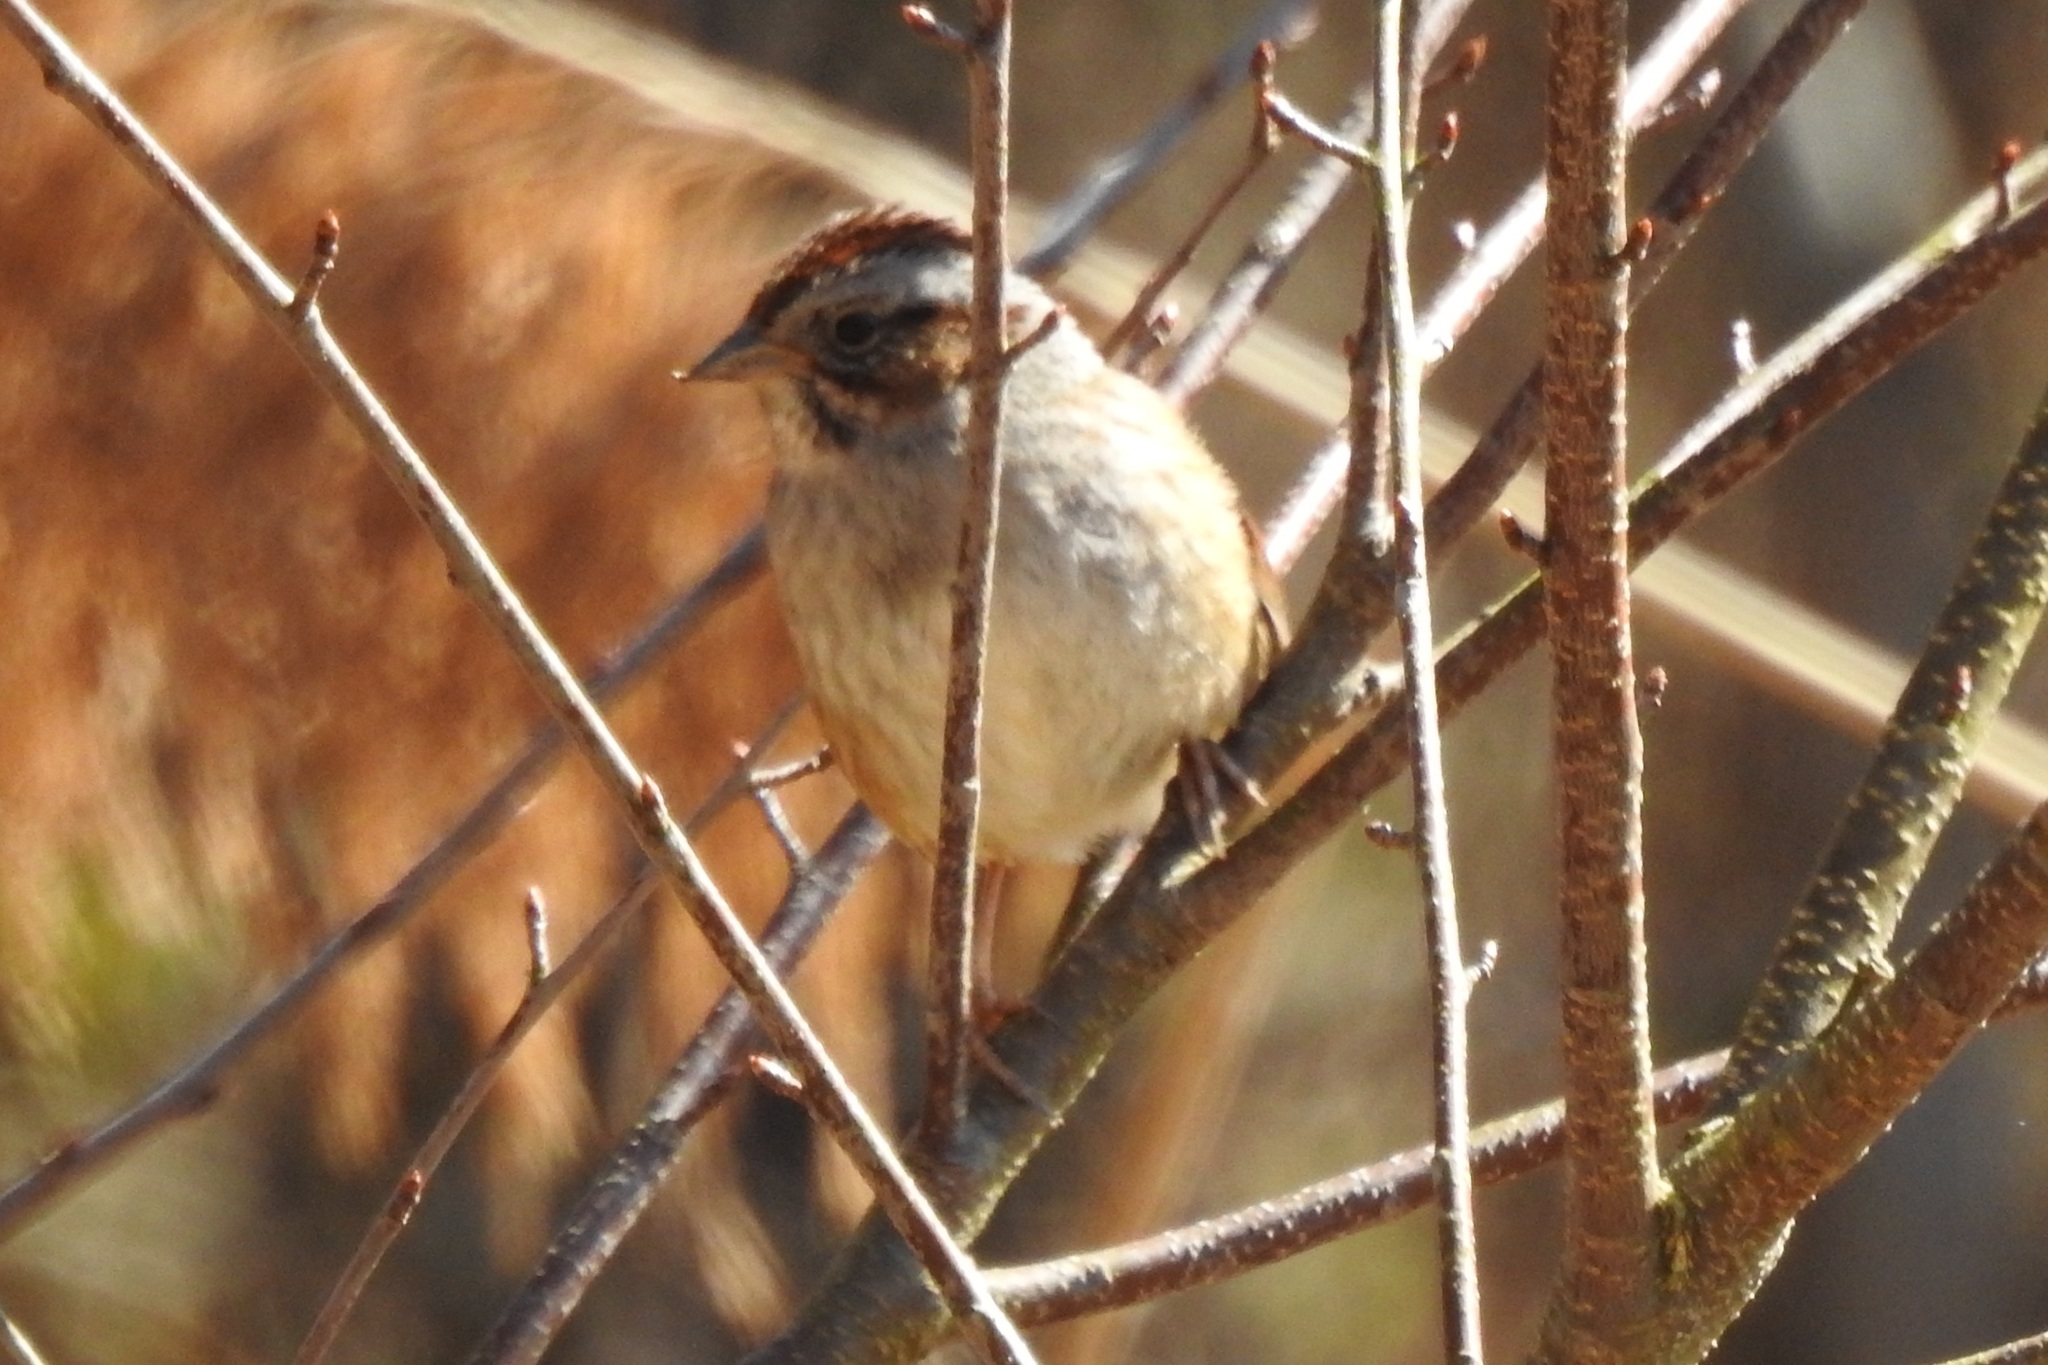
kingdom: Animalia
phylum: Chordata
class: Aves
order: Passeriformes
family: Passerellidae
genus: Melospiza
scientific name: Melospiza georgiana
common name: Swamp sparrow
